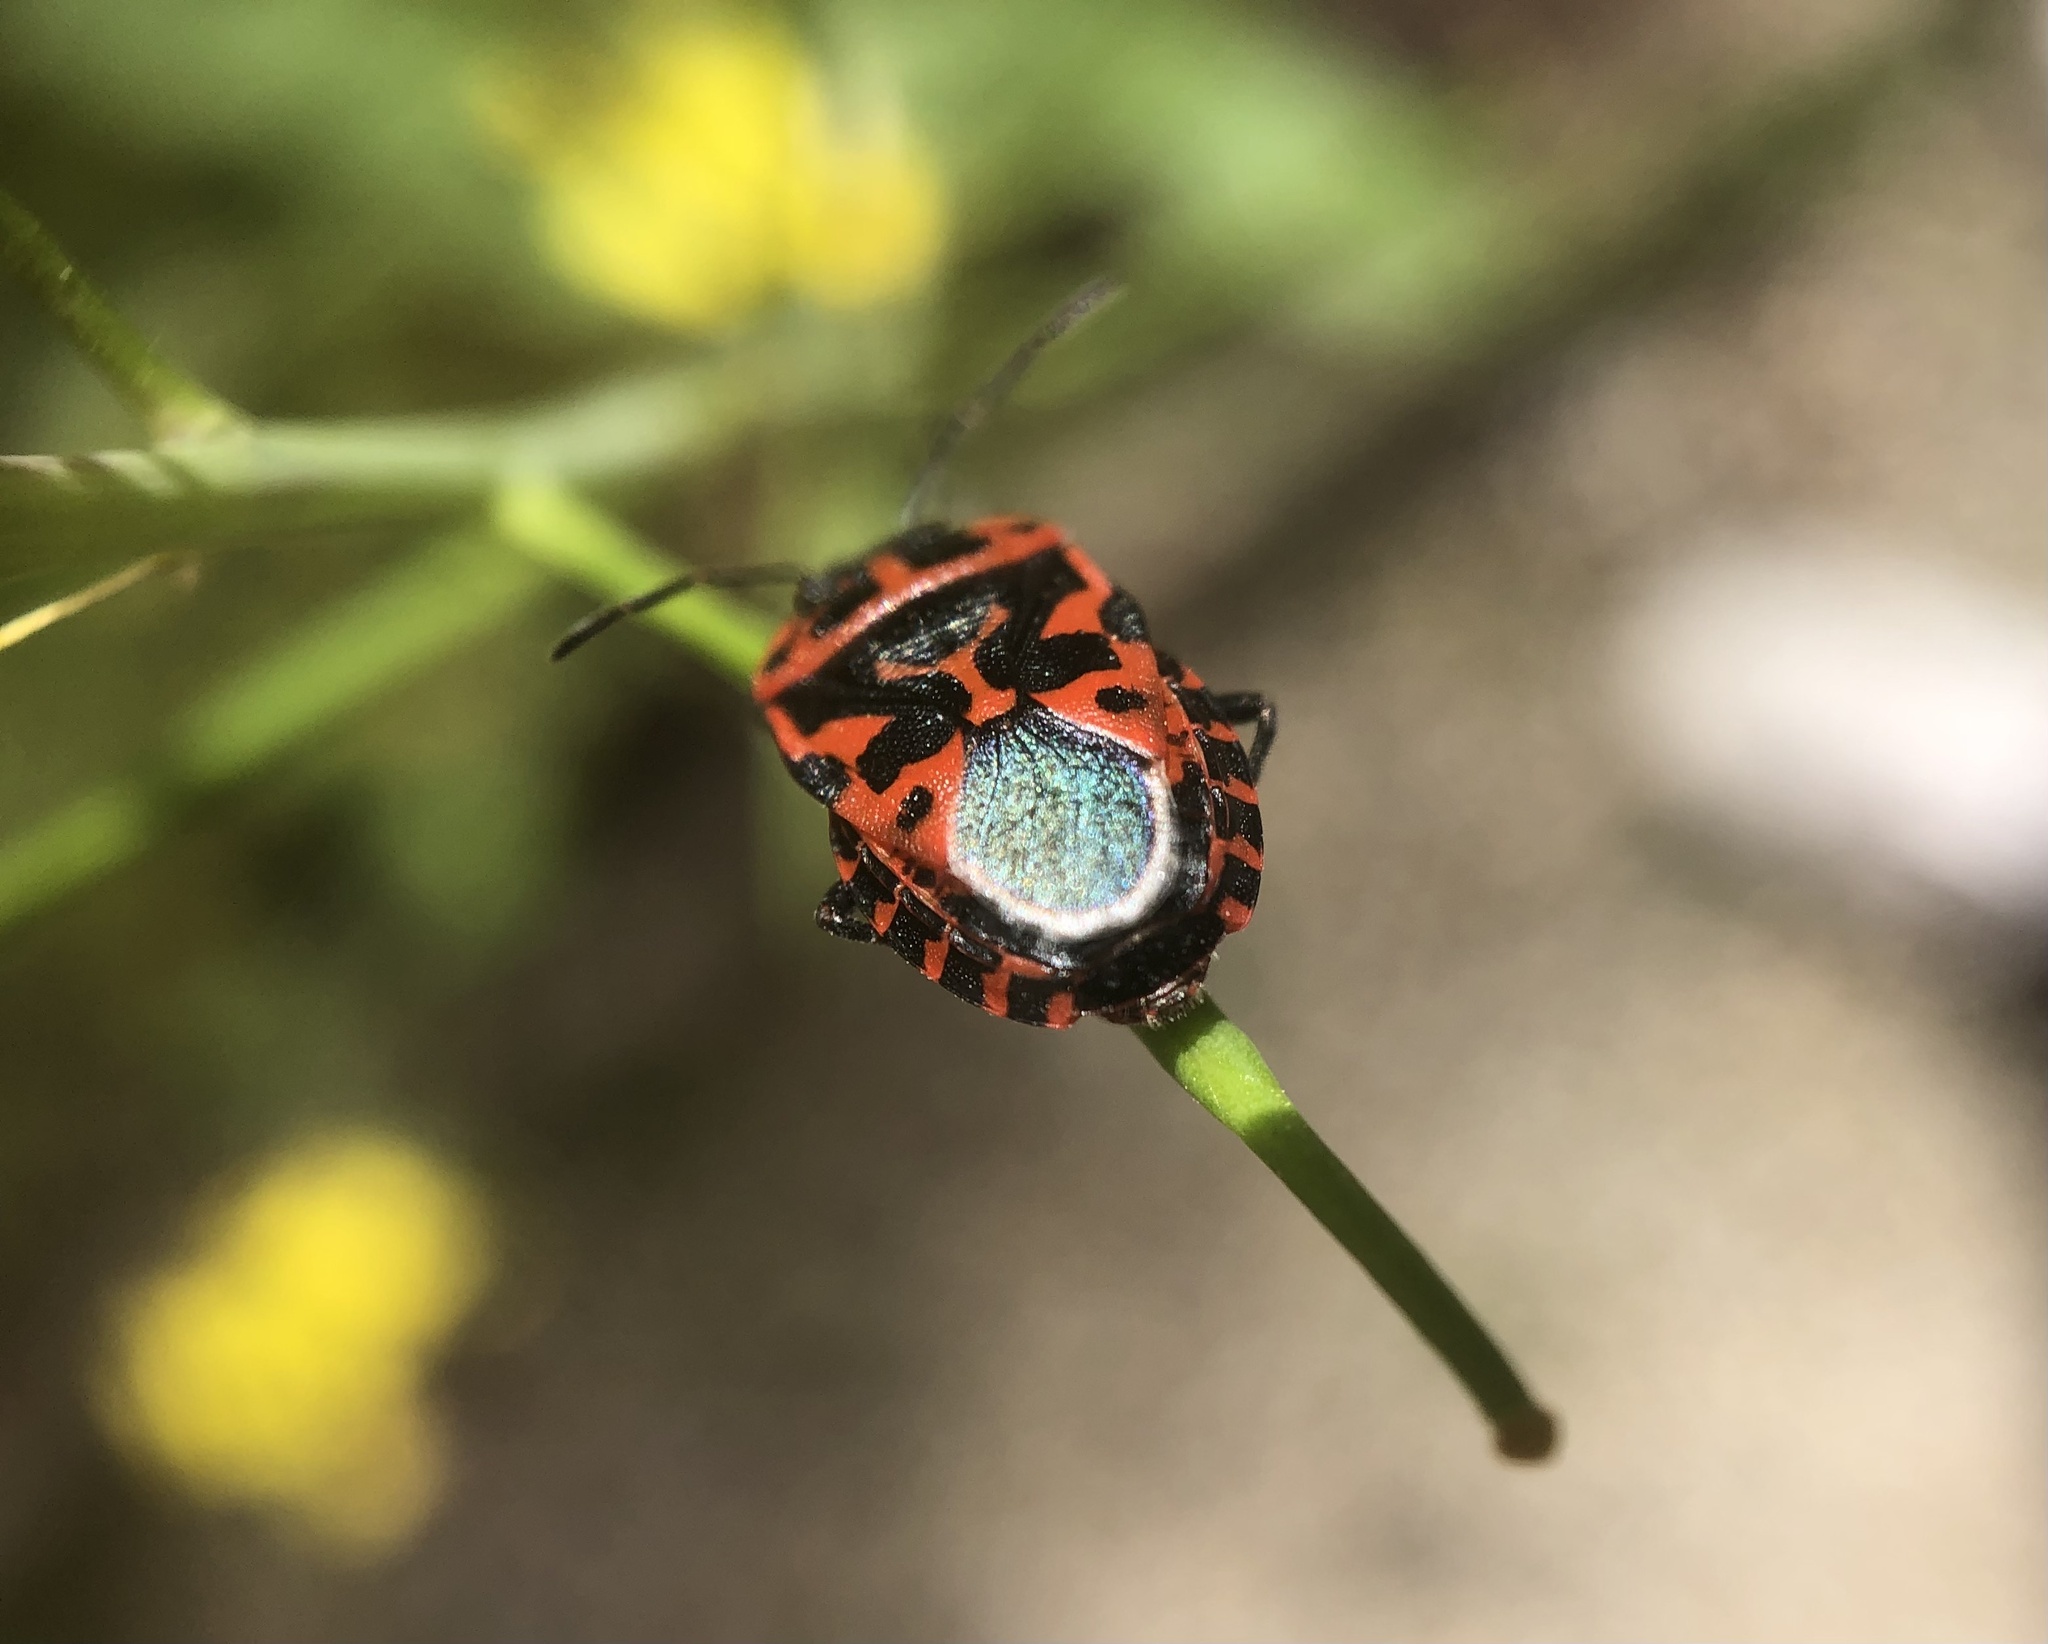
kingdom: Animalia
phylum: Arthropoda
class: Insecta
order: Hemiptera
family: Pentatomidae
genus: Eurydema
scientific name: Eurydema ventralis
